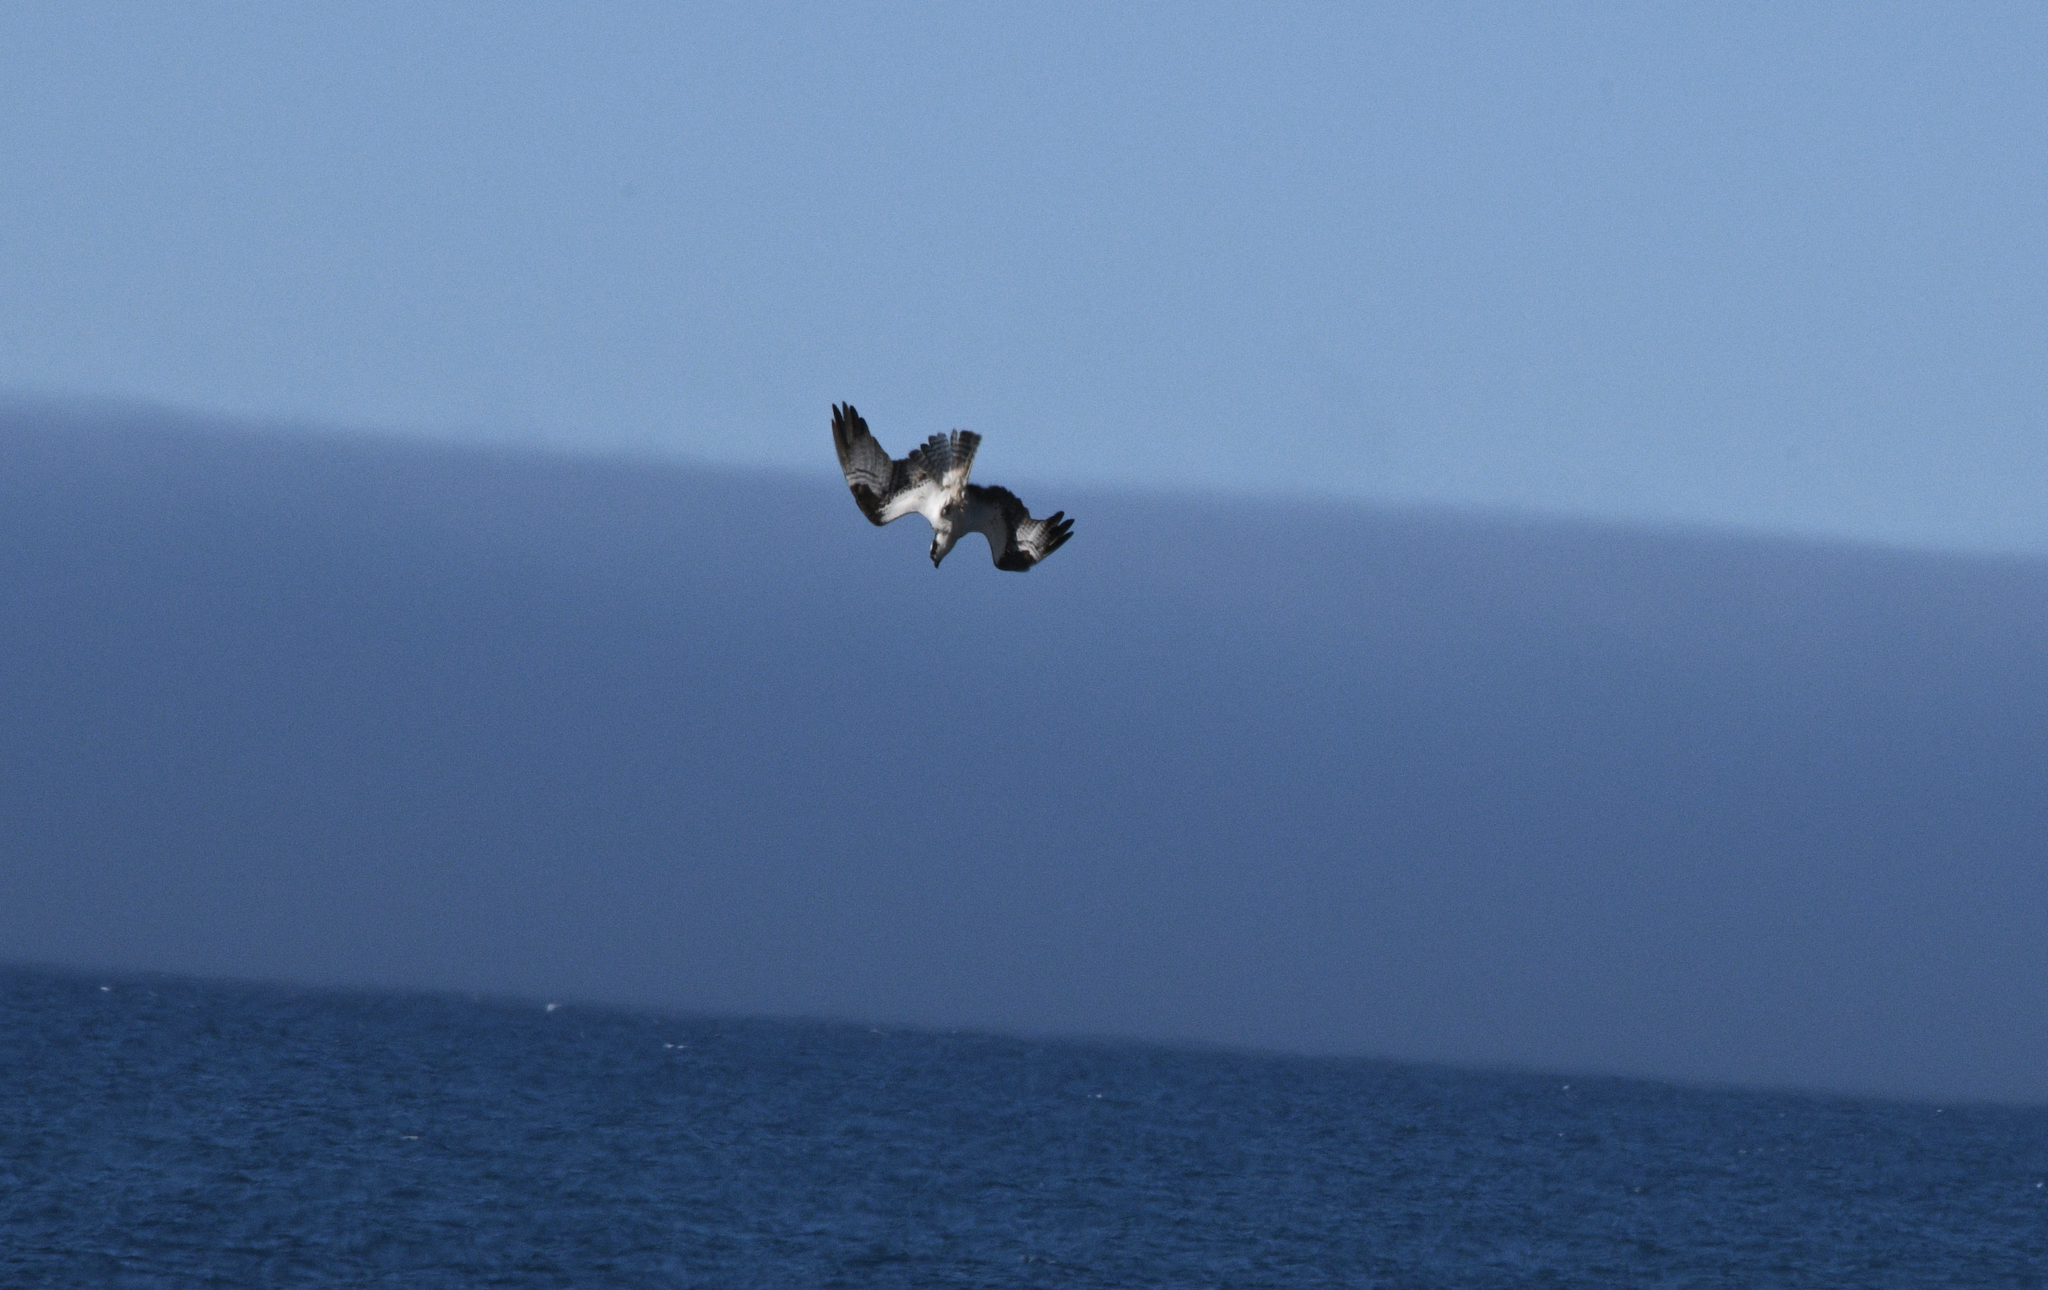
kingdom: Animalia
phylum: Chordata
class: Aves
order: Accipitriformes
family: Pandionidae
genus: Pandion
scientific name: Pandion haliaetus
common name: Osprey
